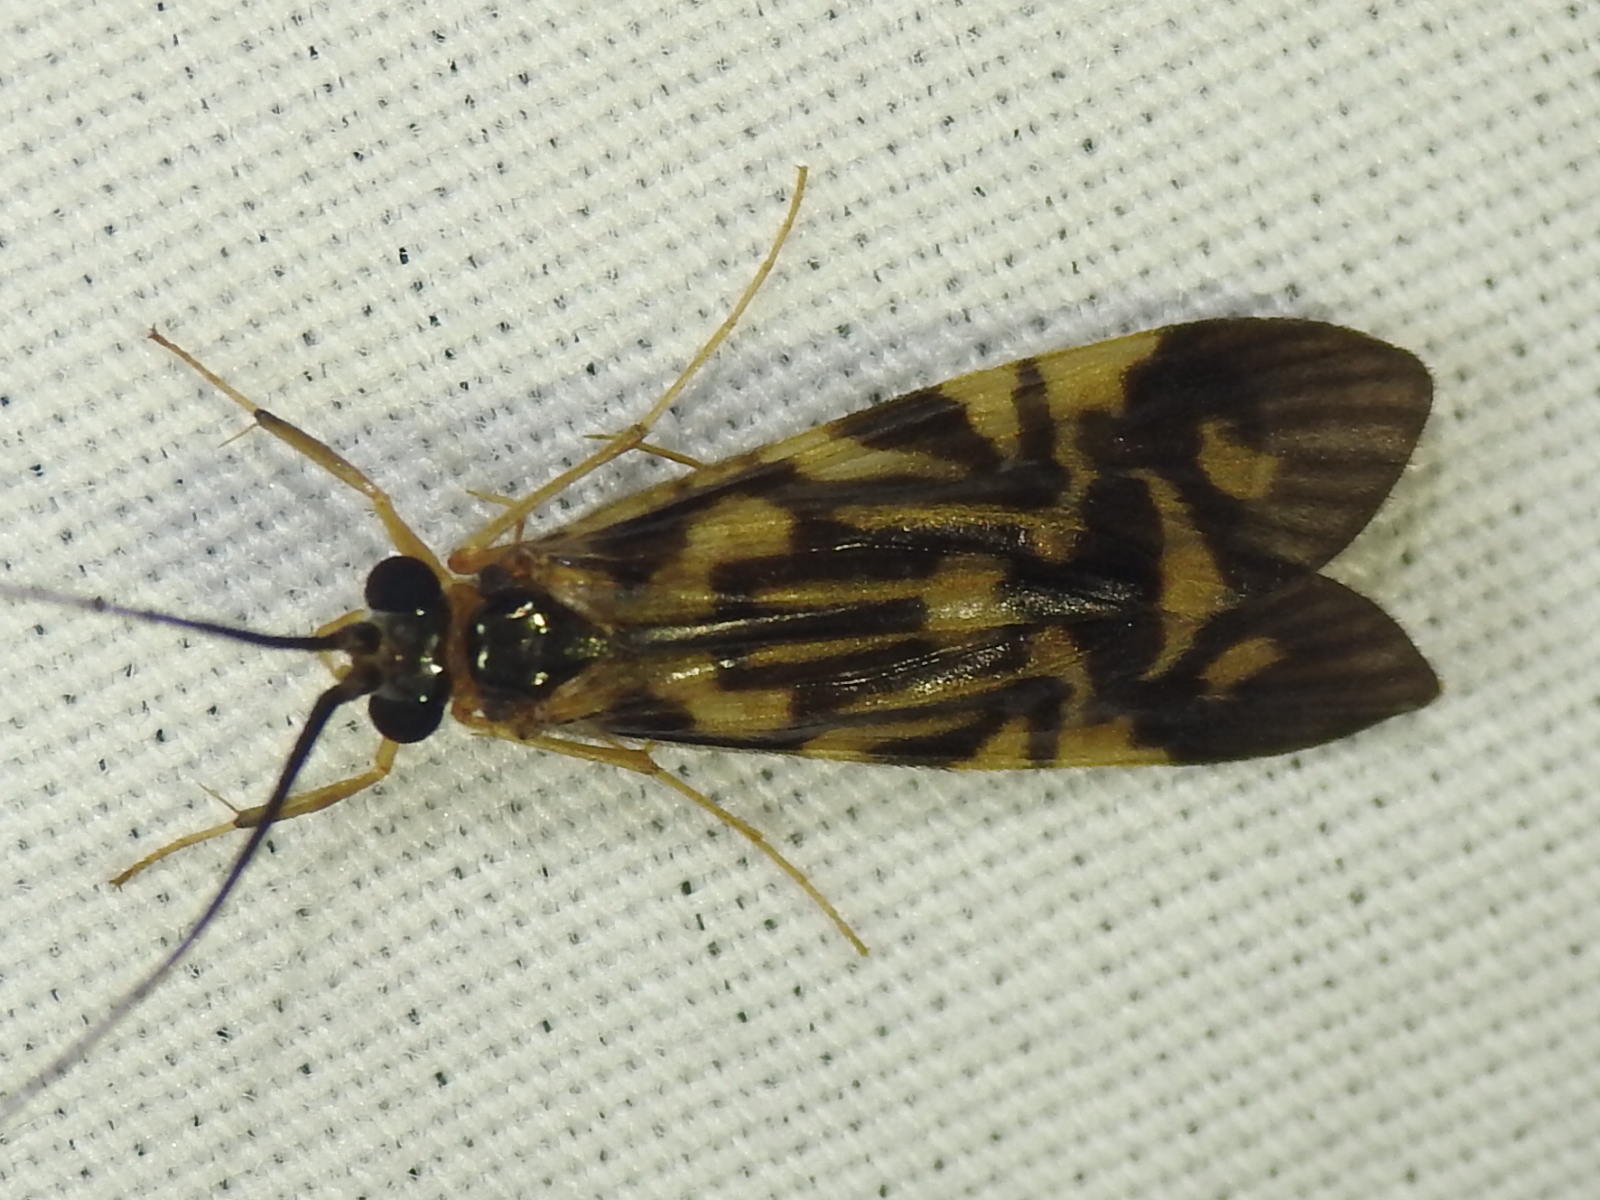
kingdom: Animalia
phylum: Arthropoda
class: Insecta
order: Trichoptera
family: Hydropsychidae
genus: Macrostemum
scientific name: Macrostemum carolina
